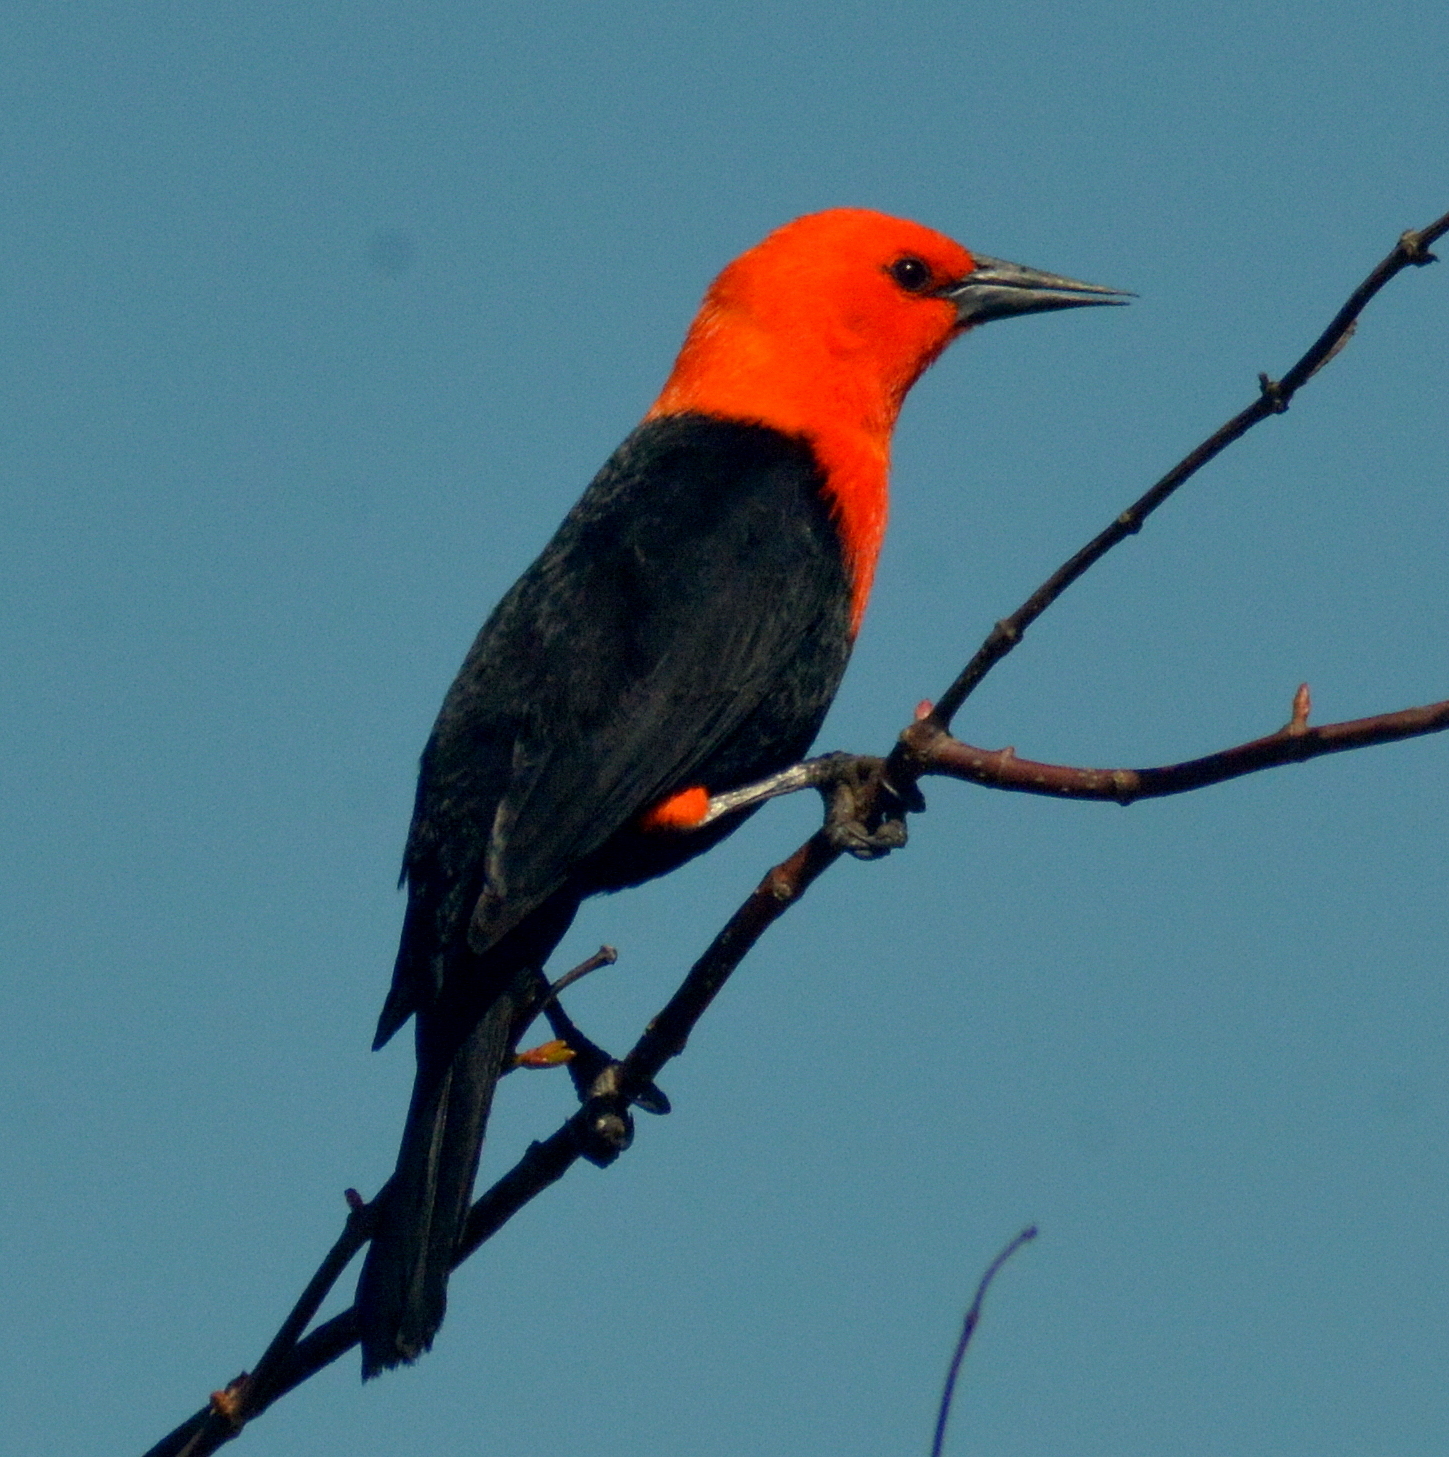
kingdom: Animalia
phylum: Chordata
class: Aves
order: Passeriformes
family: Icteridae
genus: Amblyramphus
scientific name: Amblyramphus holosericeus
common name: Scarlet-headed blackbird
